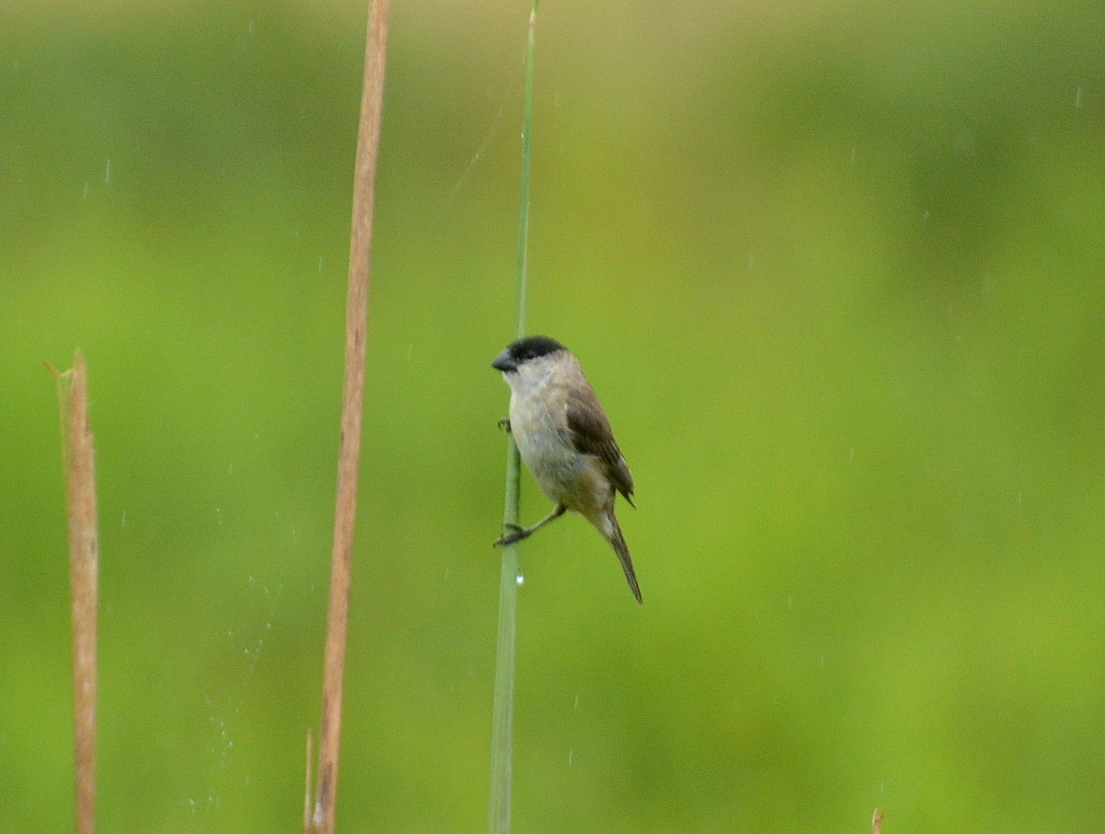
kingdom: Animalia
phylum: Chordata
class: Aves
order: Passeriformes
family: Thraupidae
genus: Sporophila
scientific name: Sporophila pileata
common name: Pearly-bellied seedeater
